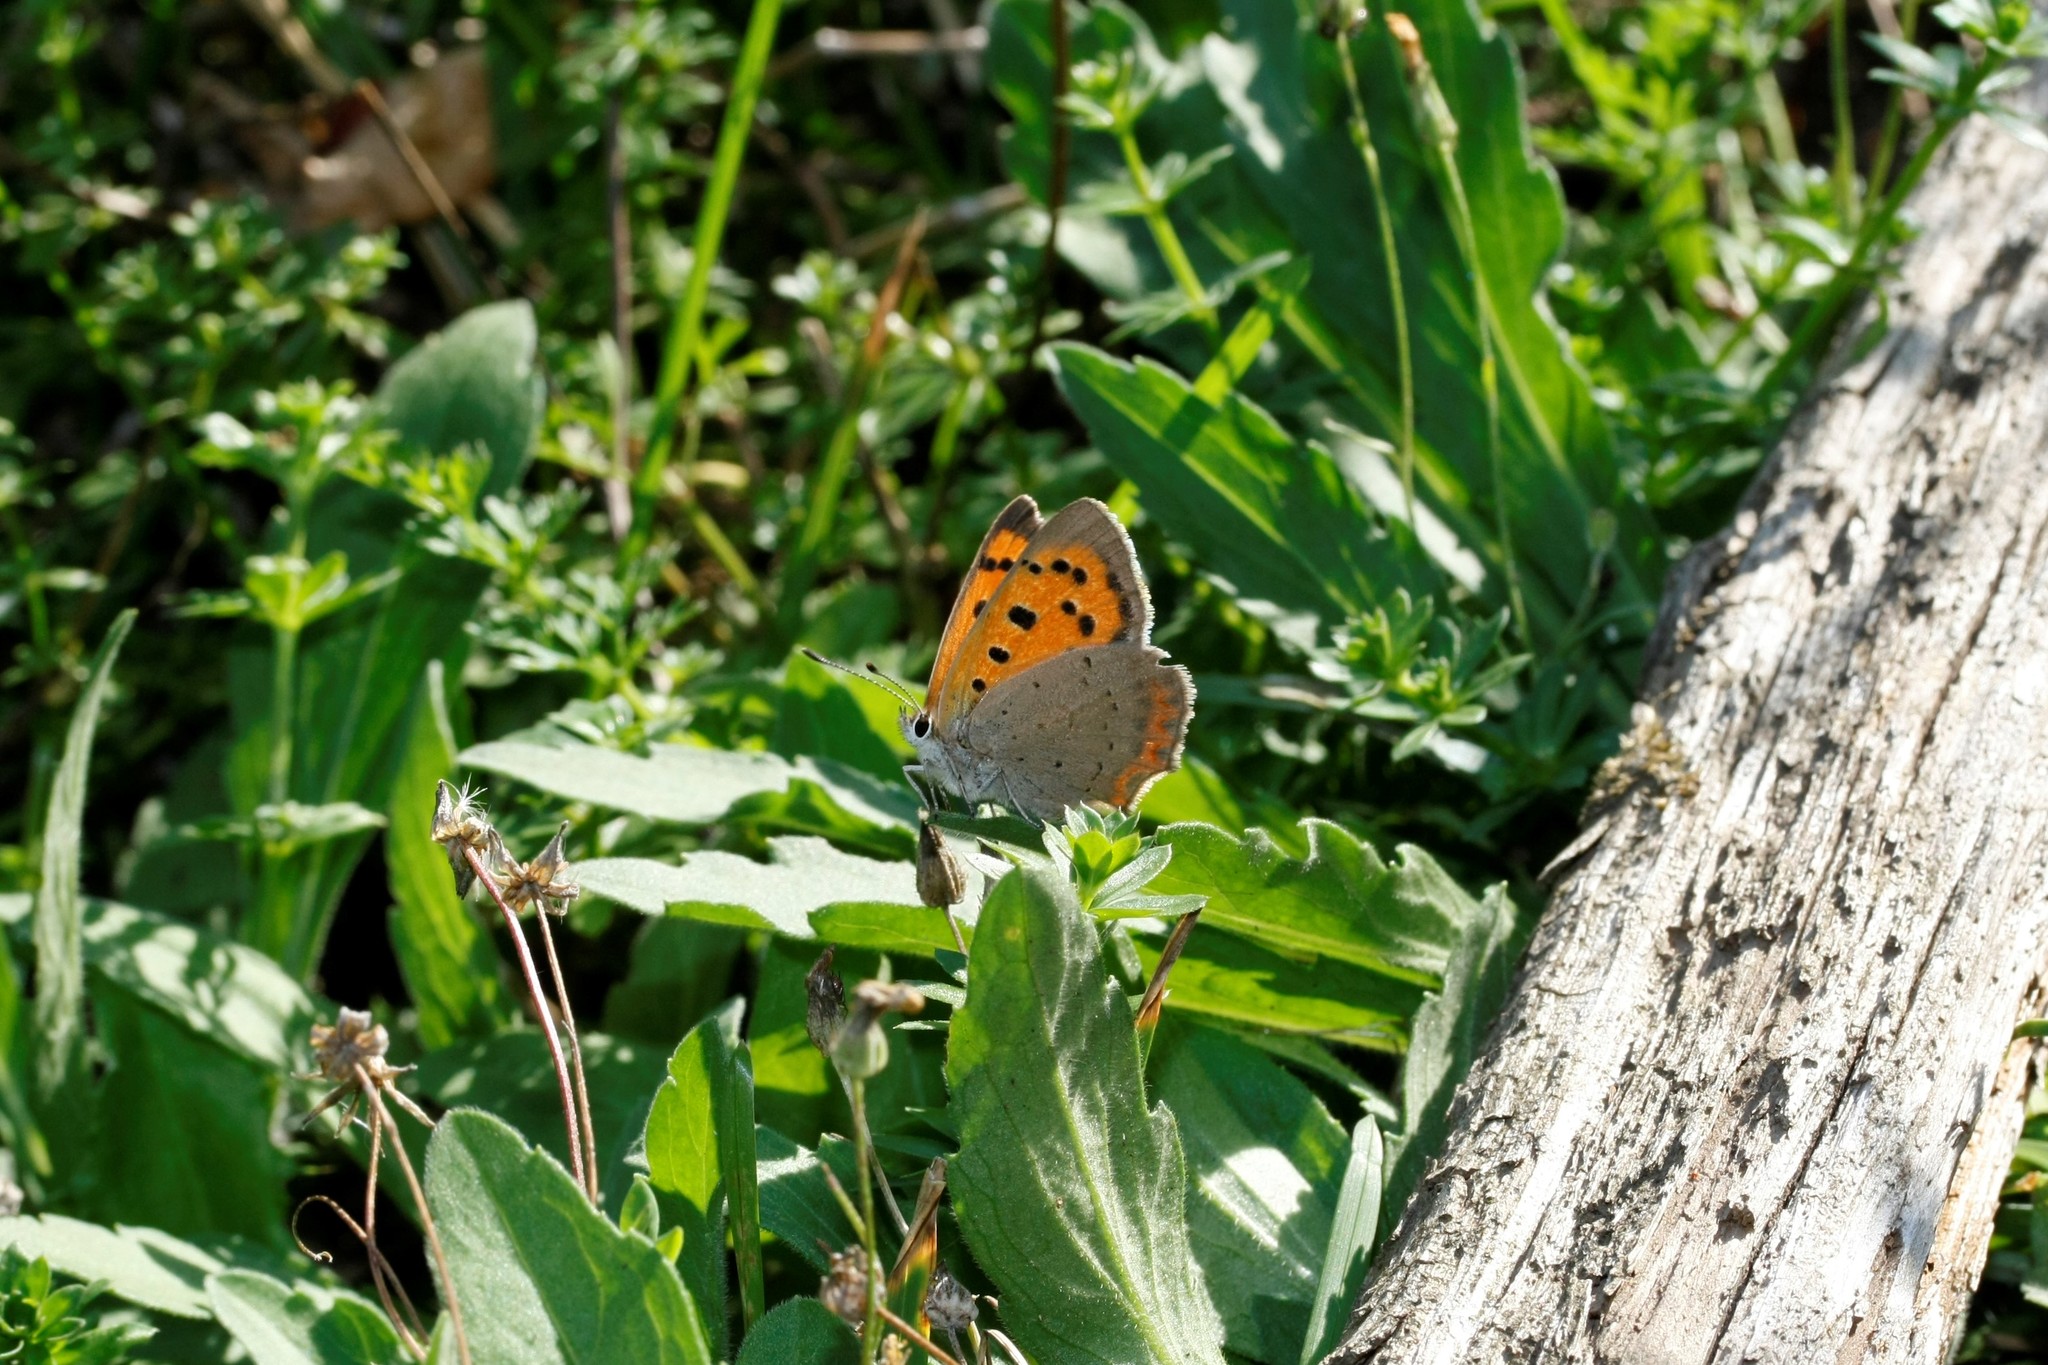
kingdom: Animalia
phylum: Arthropoda
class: Insecta
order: Lepidoptera
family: Lycaenidae
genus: Lycaena
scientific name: Lycaena phlaeas
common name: Small copper
